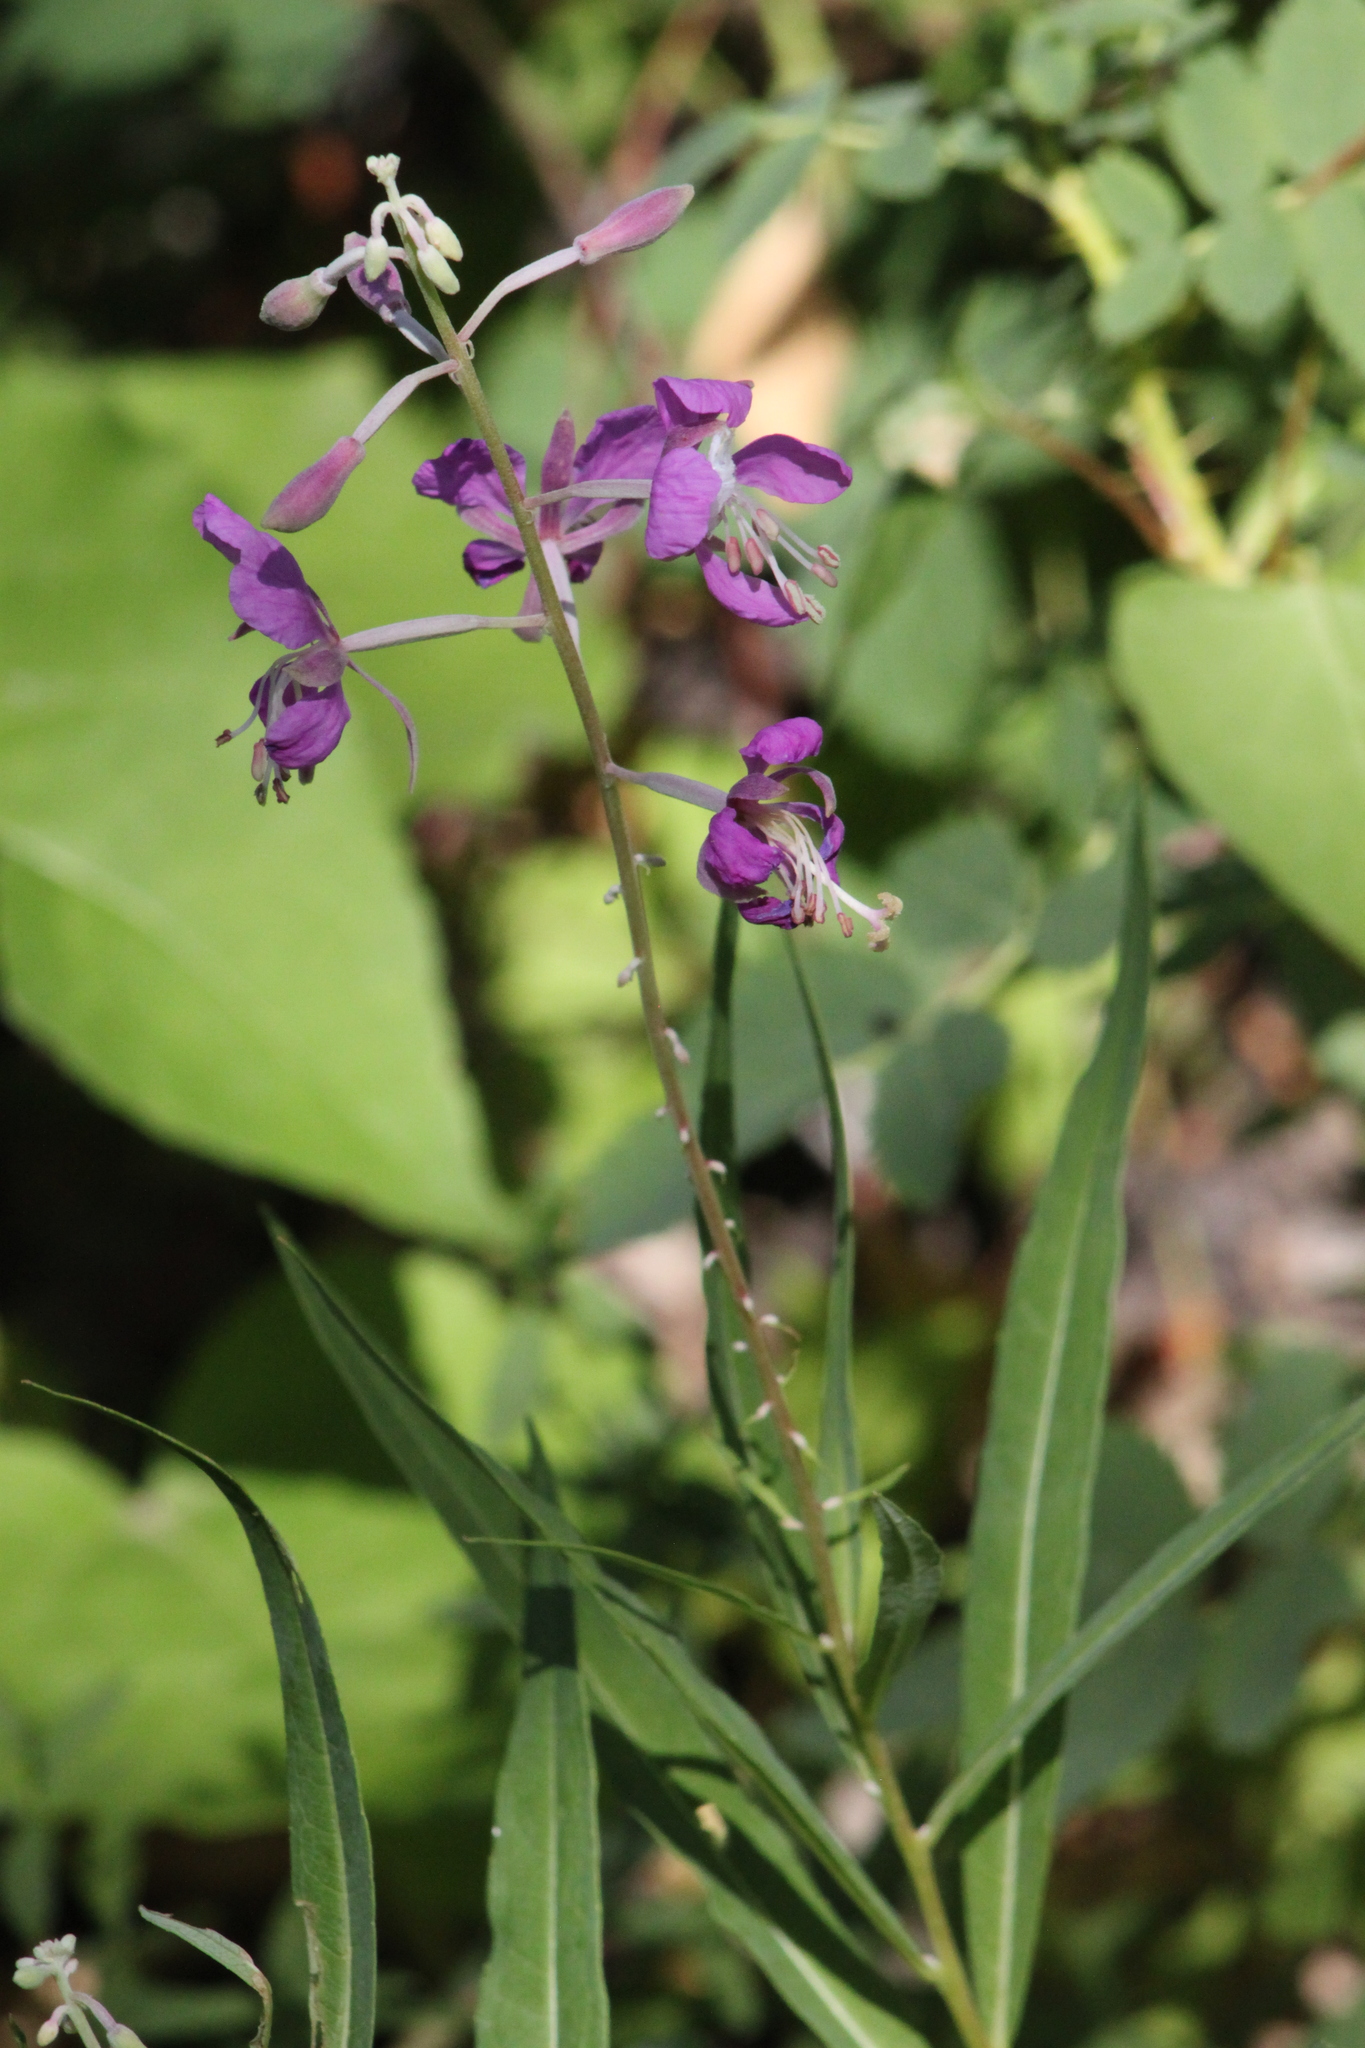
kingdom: Plantae
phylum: Tracheophyta
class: Magnoliopsida
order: Myrtales
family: Onagraceae
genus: Chamaenerion
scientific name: Chamaenerion angustifolium
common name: Fireweed
